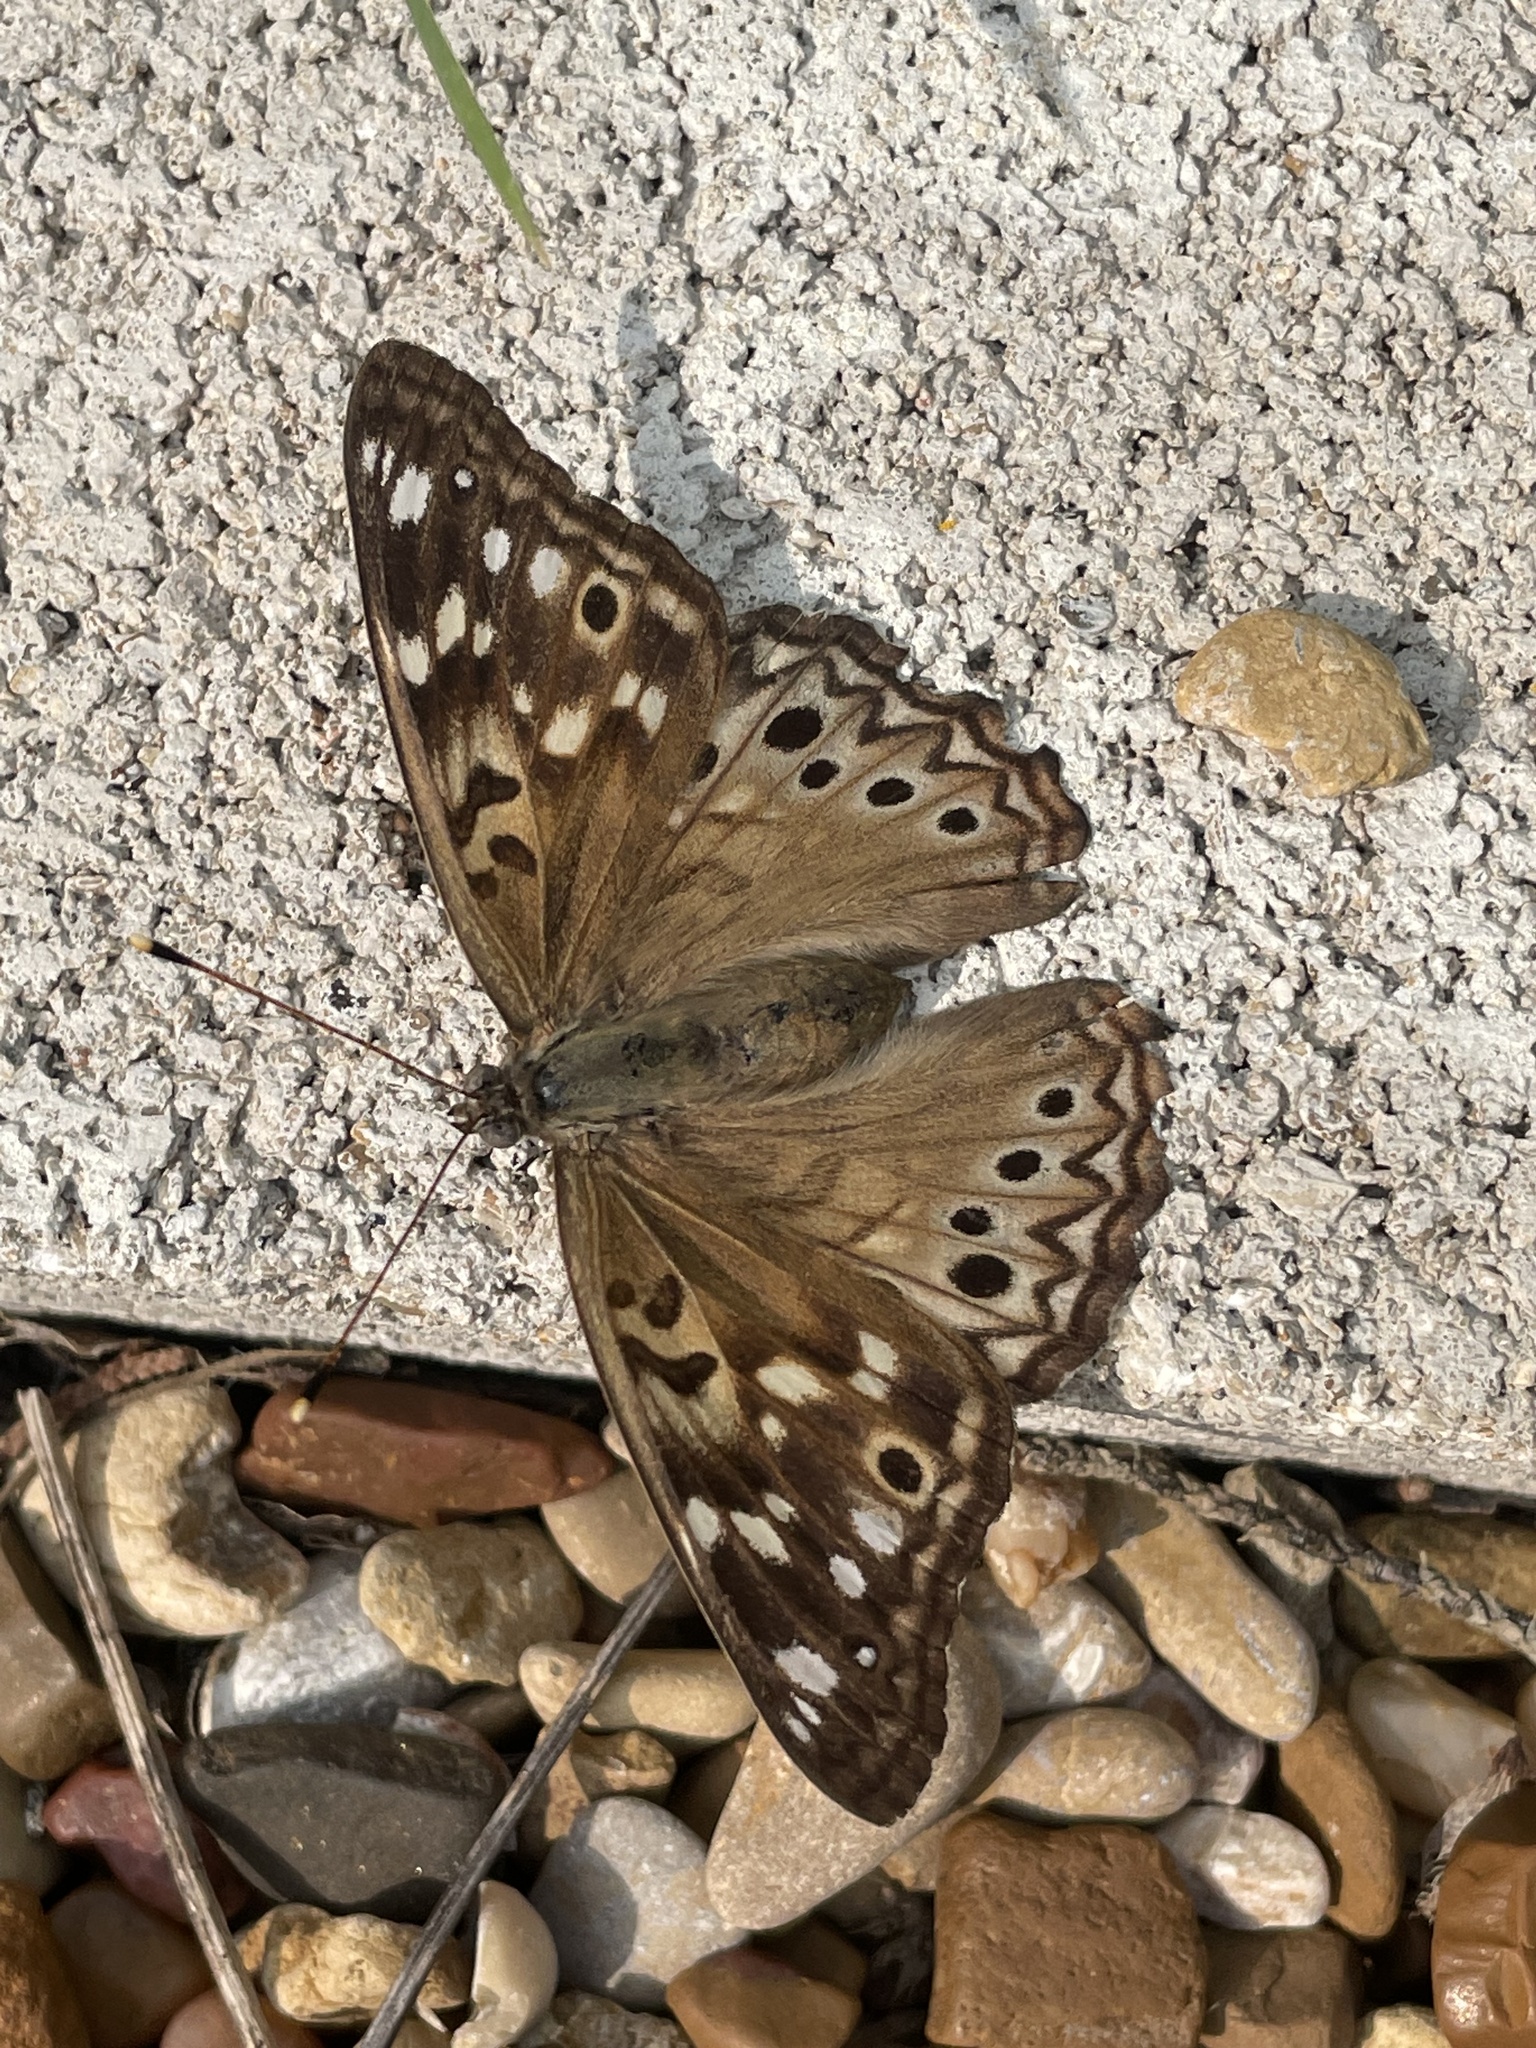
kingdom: Animalia
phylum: Arthropoda
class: Insecta
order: Lepidoptera
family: Nymphalidae
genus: Asterocampa
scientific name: Asterocampa celtis
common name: Hackberry emperor
